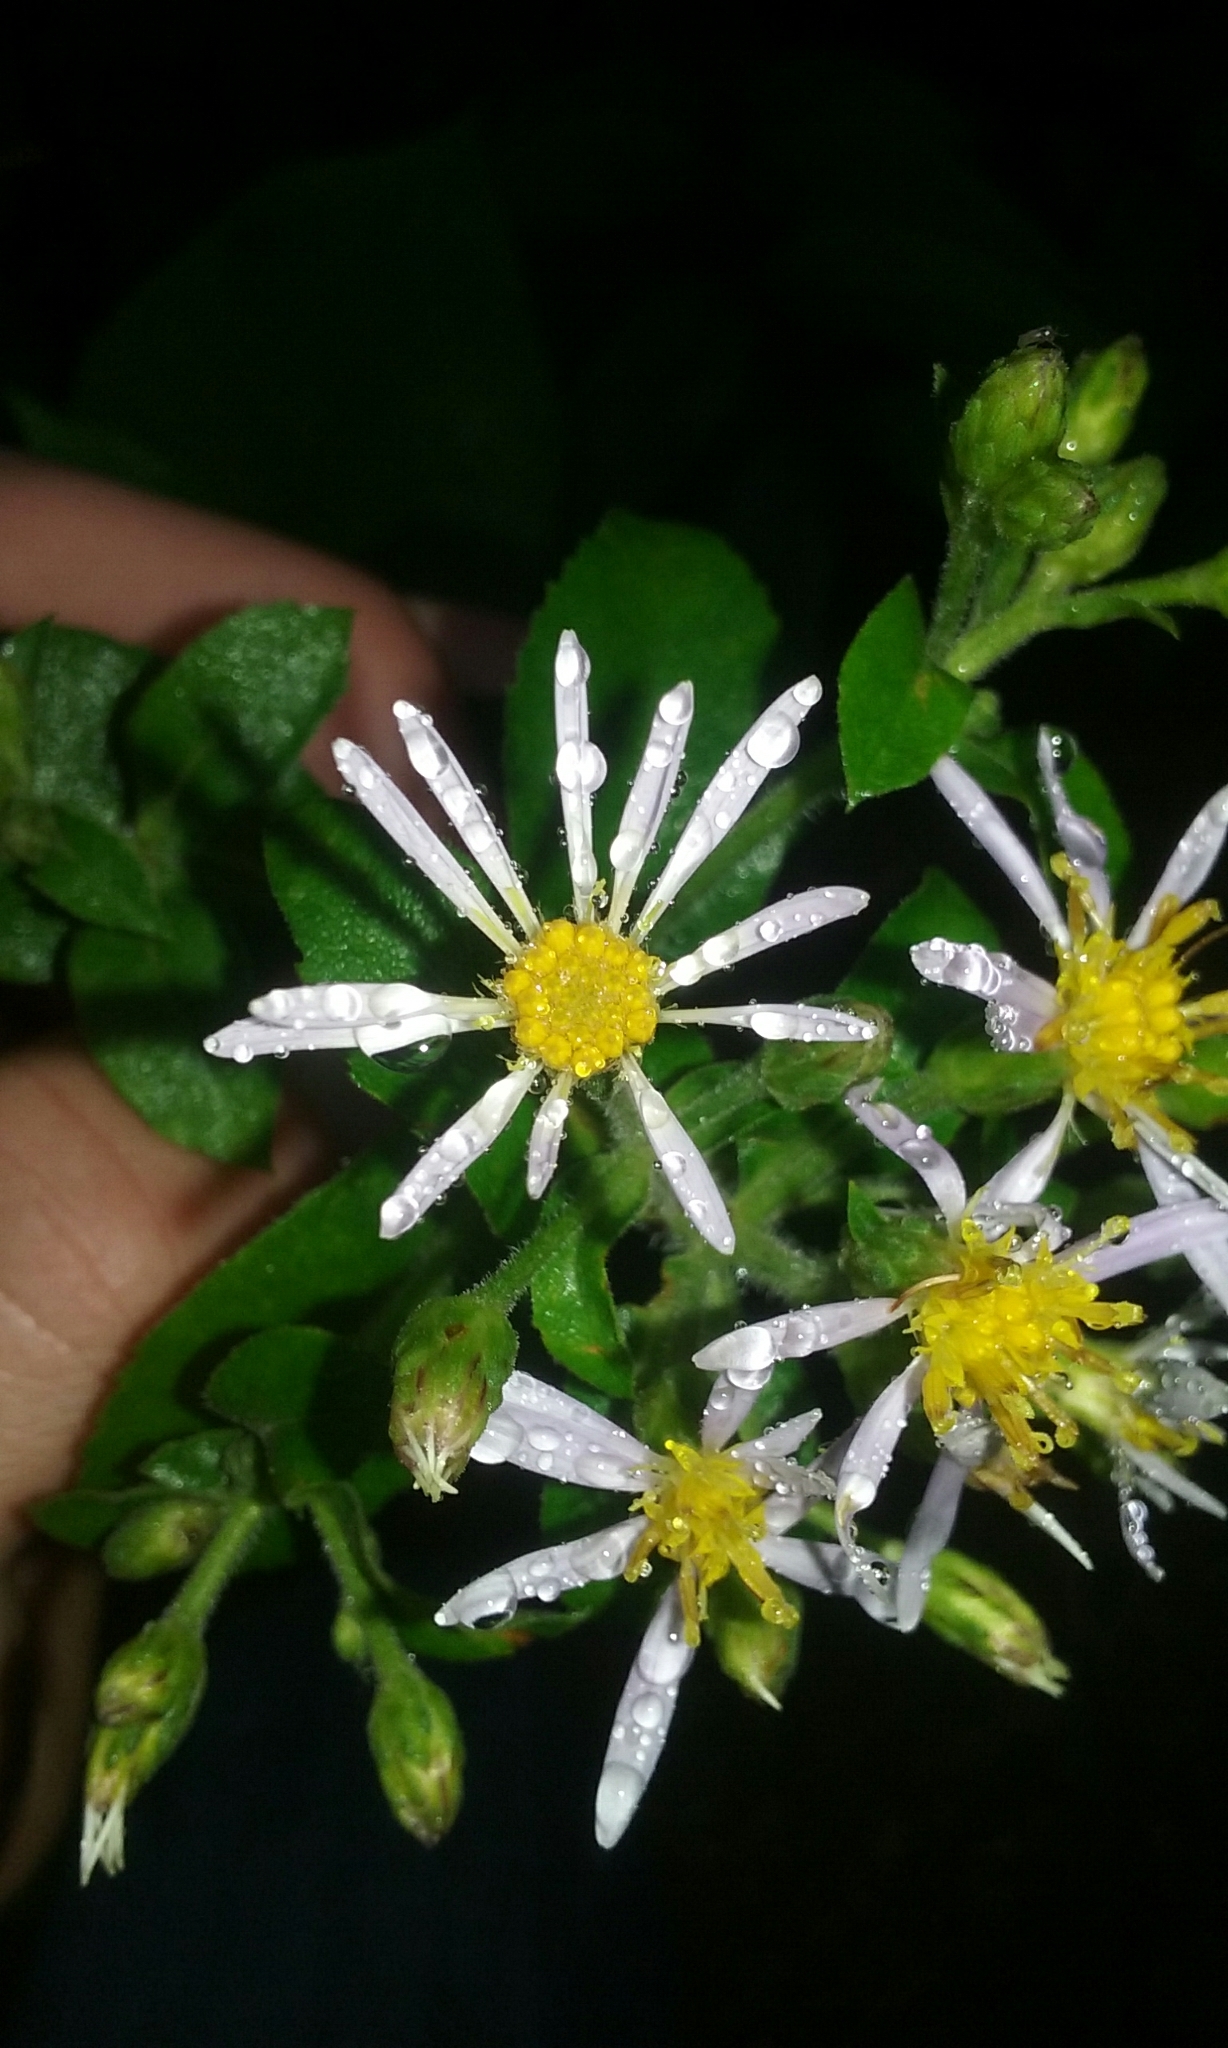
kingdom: Plantae
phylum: Tracheophyta
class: Magnoliopsida
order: Asterales
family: Asteraceae
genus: Eurybia
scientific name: Eurybia macrophylla
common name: Big-leaved aster
